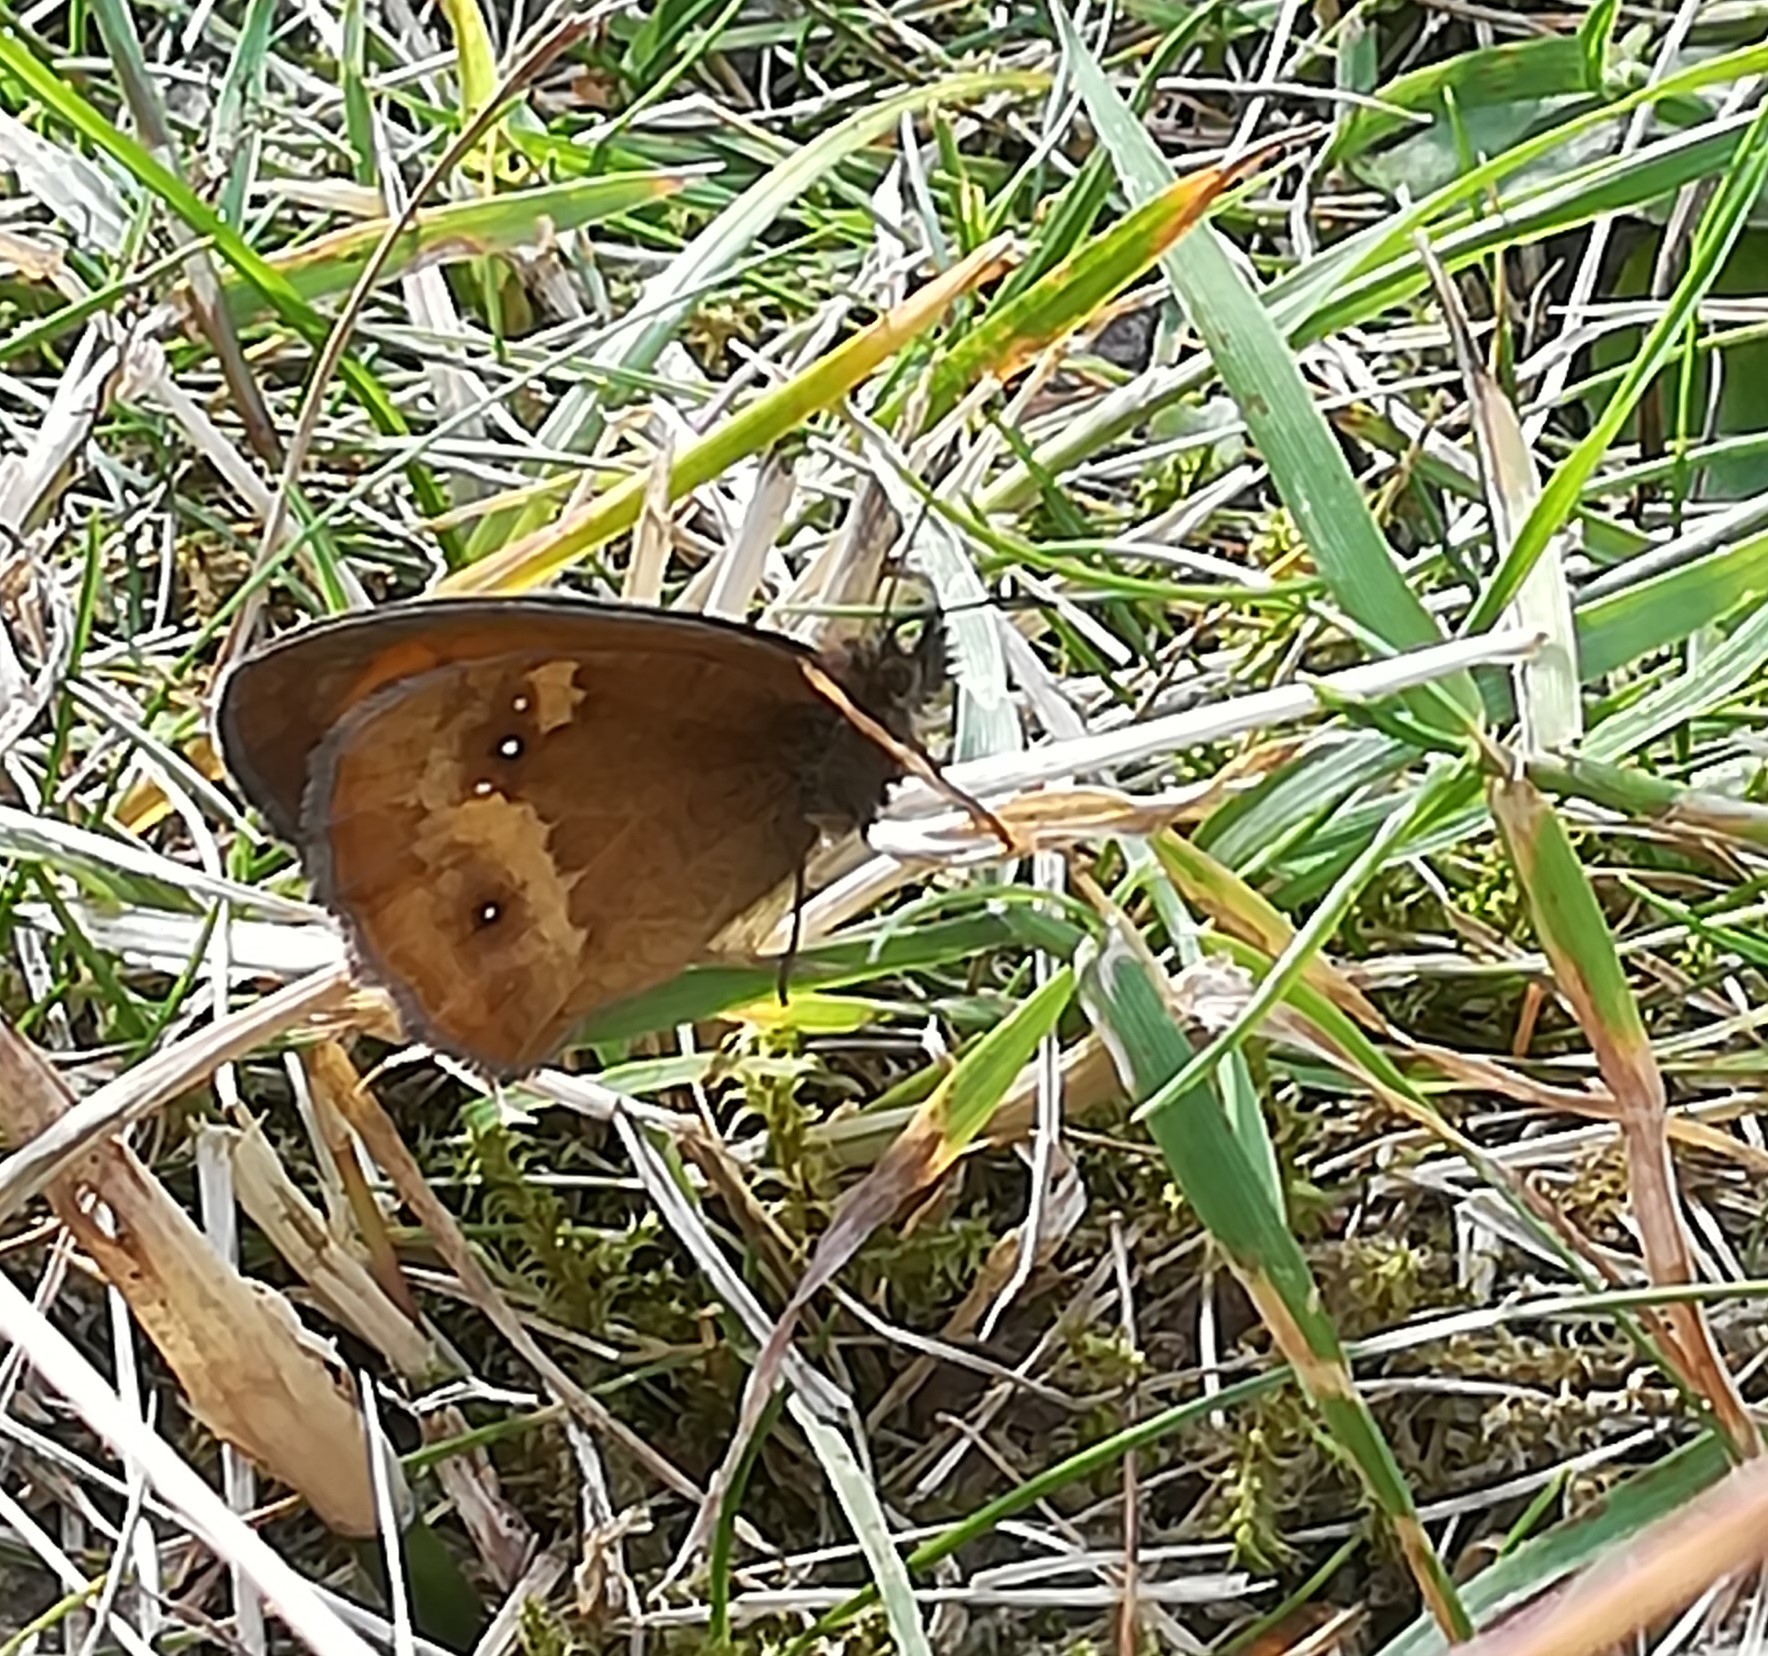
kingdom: Animalia
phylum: Arthropoda
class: Insecta
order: Lepidoptera
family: Nymphalidae
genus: Pyronia
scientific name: Pyronia tithonus
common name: Gatekeeper
